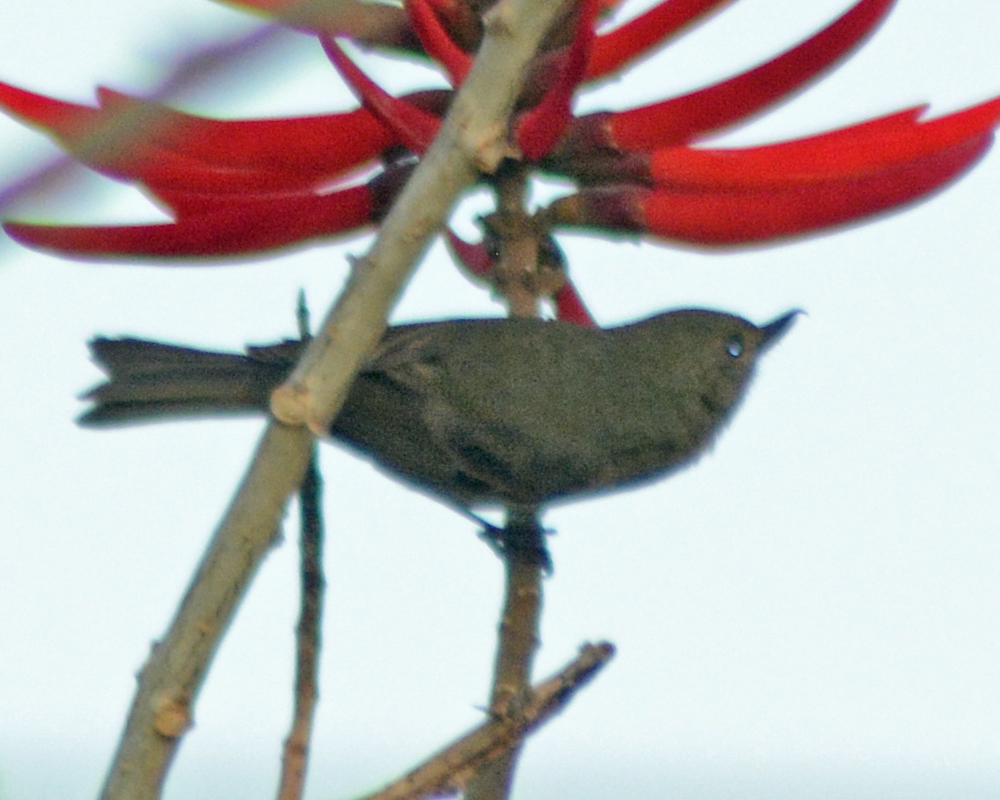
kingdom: Animalia
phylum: Chordata
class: Aves
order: Passeriformes
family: Thraupidae
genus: Diglossa
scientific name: Diglossa baritula
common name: Cinnamon-bellied flowerpiercer
